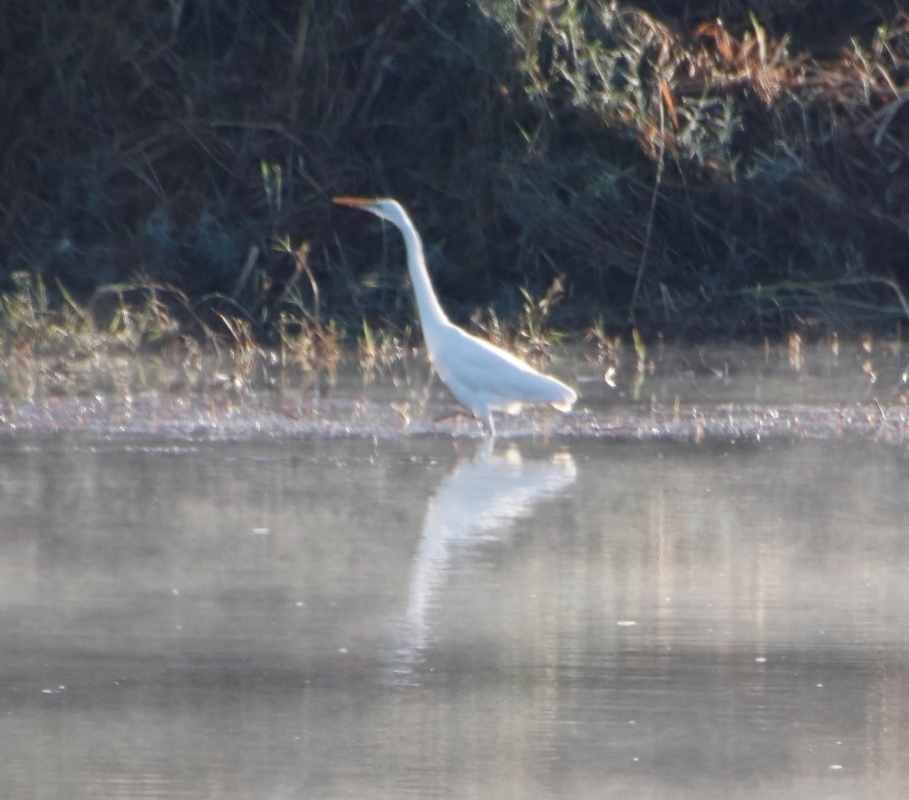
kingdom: Animalia
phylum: Chordata
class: Aves
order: Pelecaniformes
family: Ardeidae
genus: Ardea
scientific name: Ardea alba
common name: Great egret
